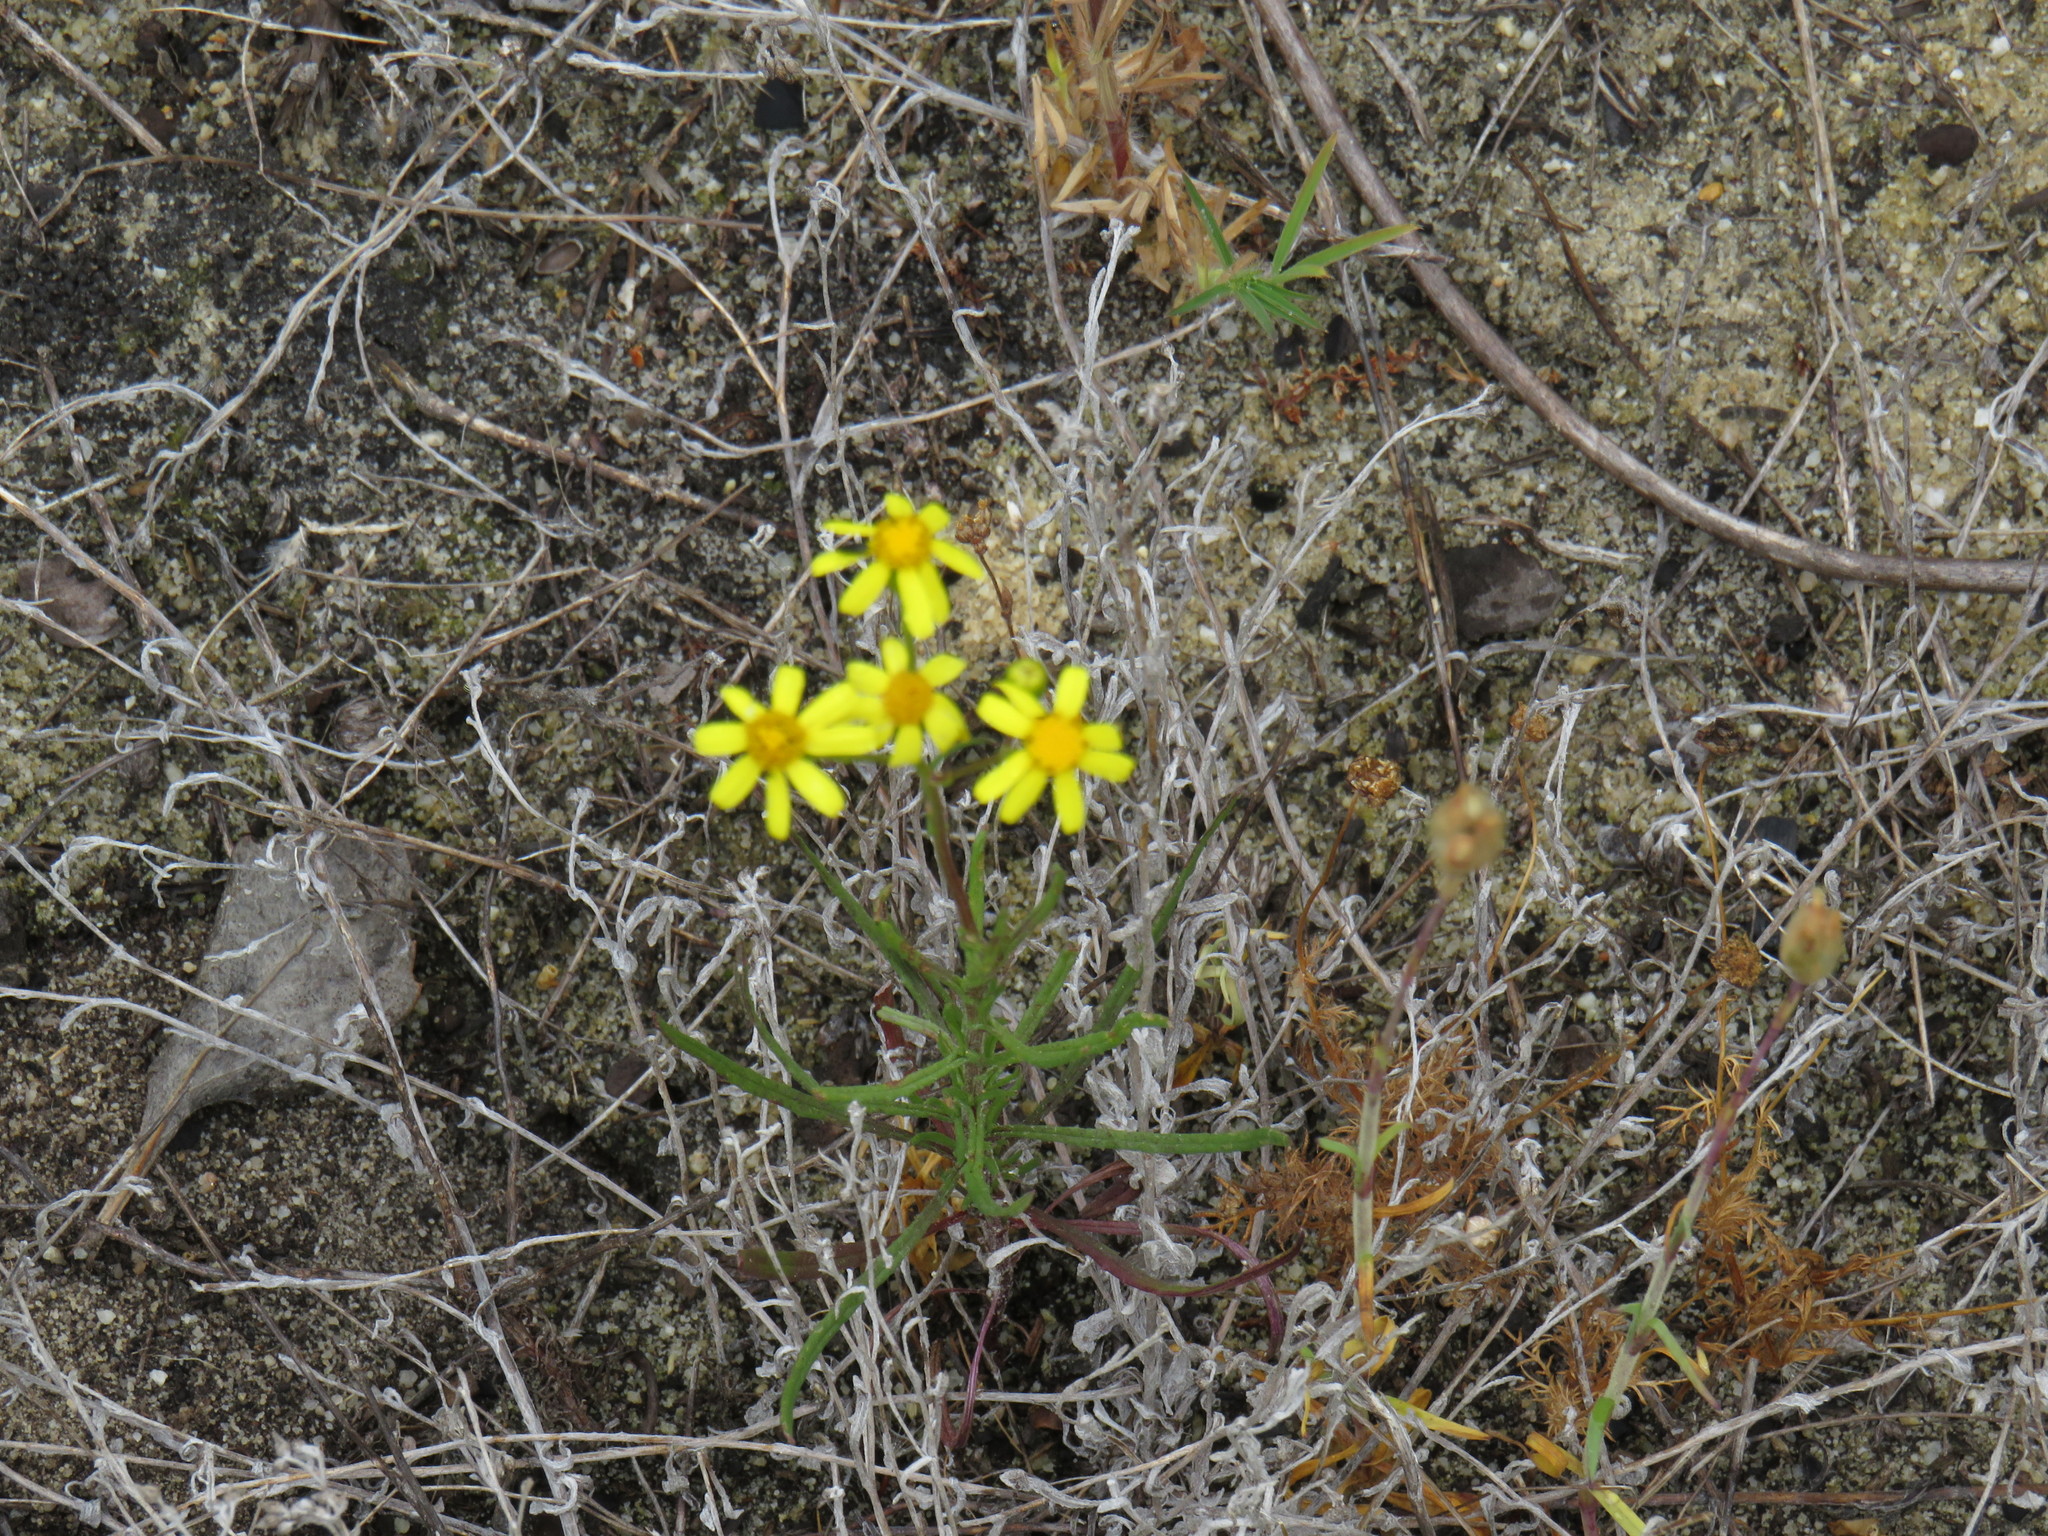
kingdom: Plantae
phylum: Tracheophyta
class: Magnoliopsida
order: Asterales
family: Asteraceae
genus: Senecio
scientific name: Senecio burchellii
